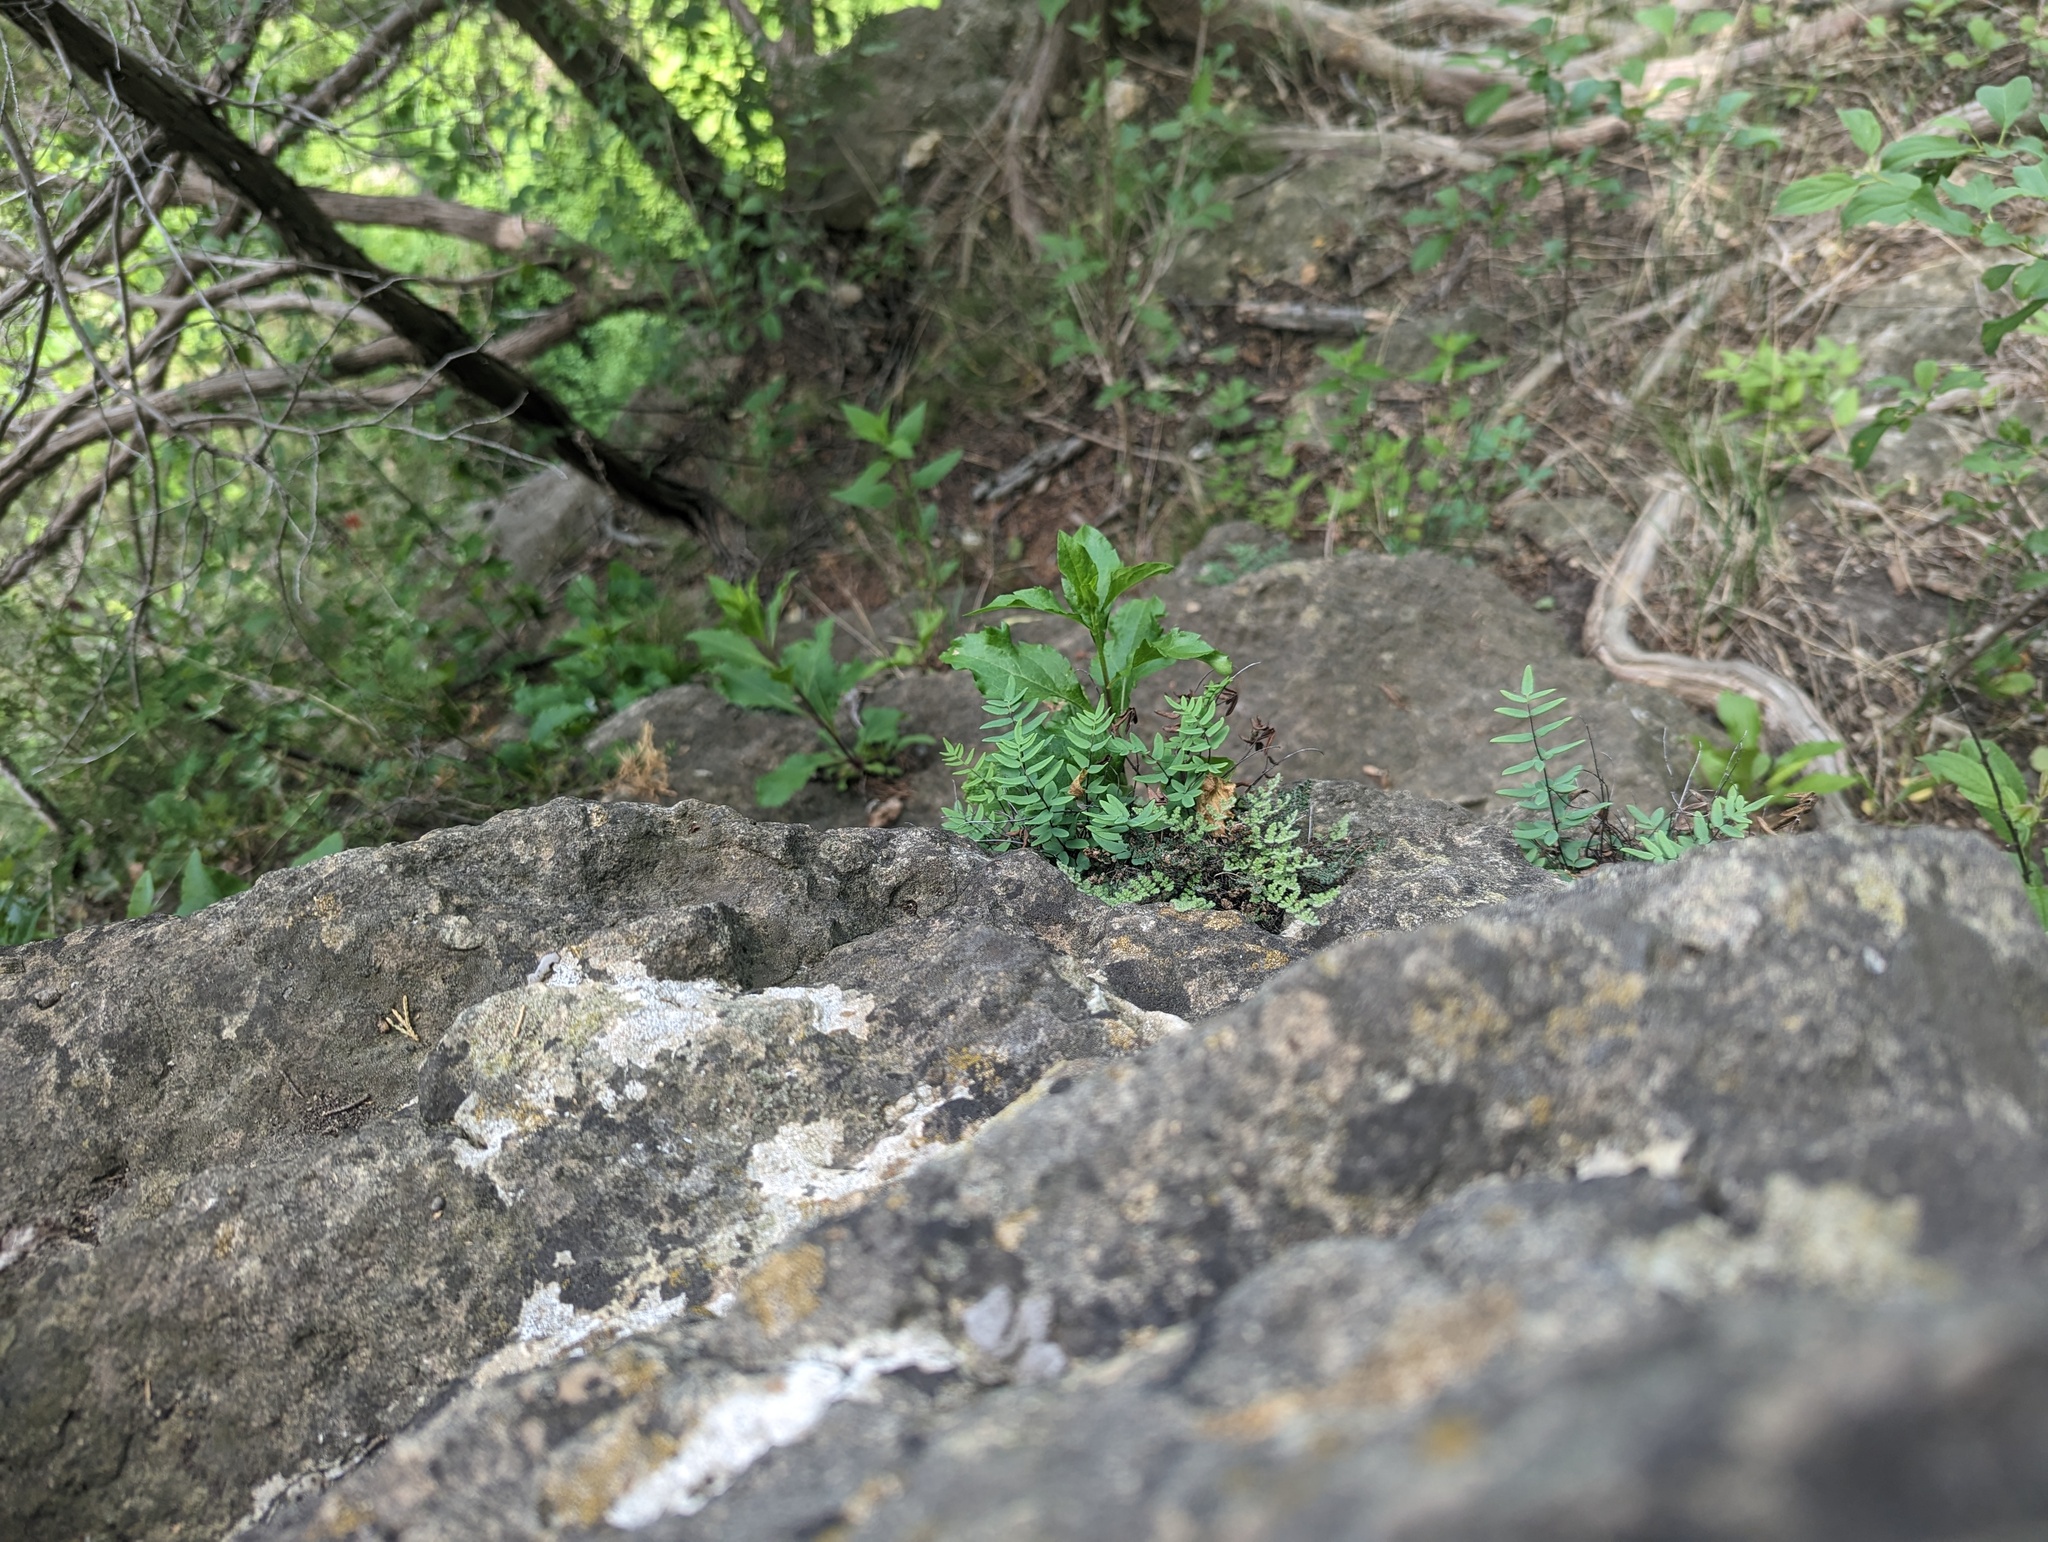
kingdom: Plantae
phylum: Tracheophyta
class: Polypodiopsida
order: Polypodiales
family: Pteridaceae
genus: Pellaea
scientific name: Pellaea glabella
